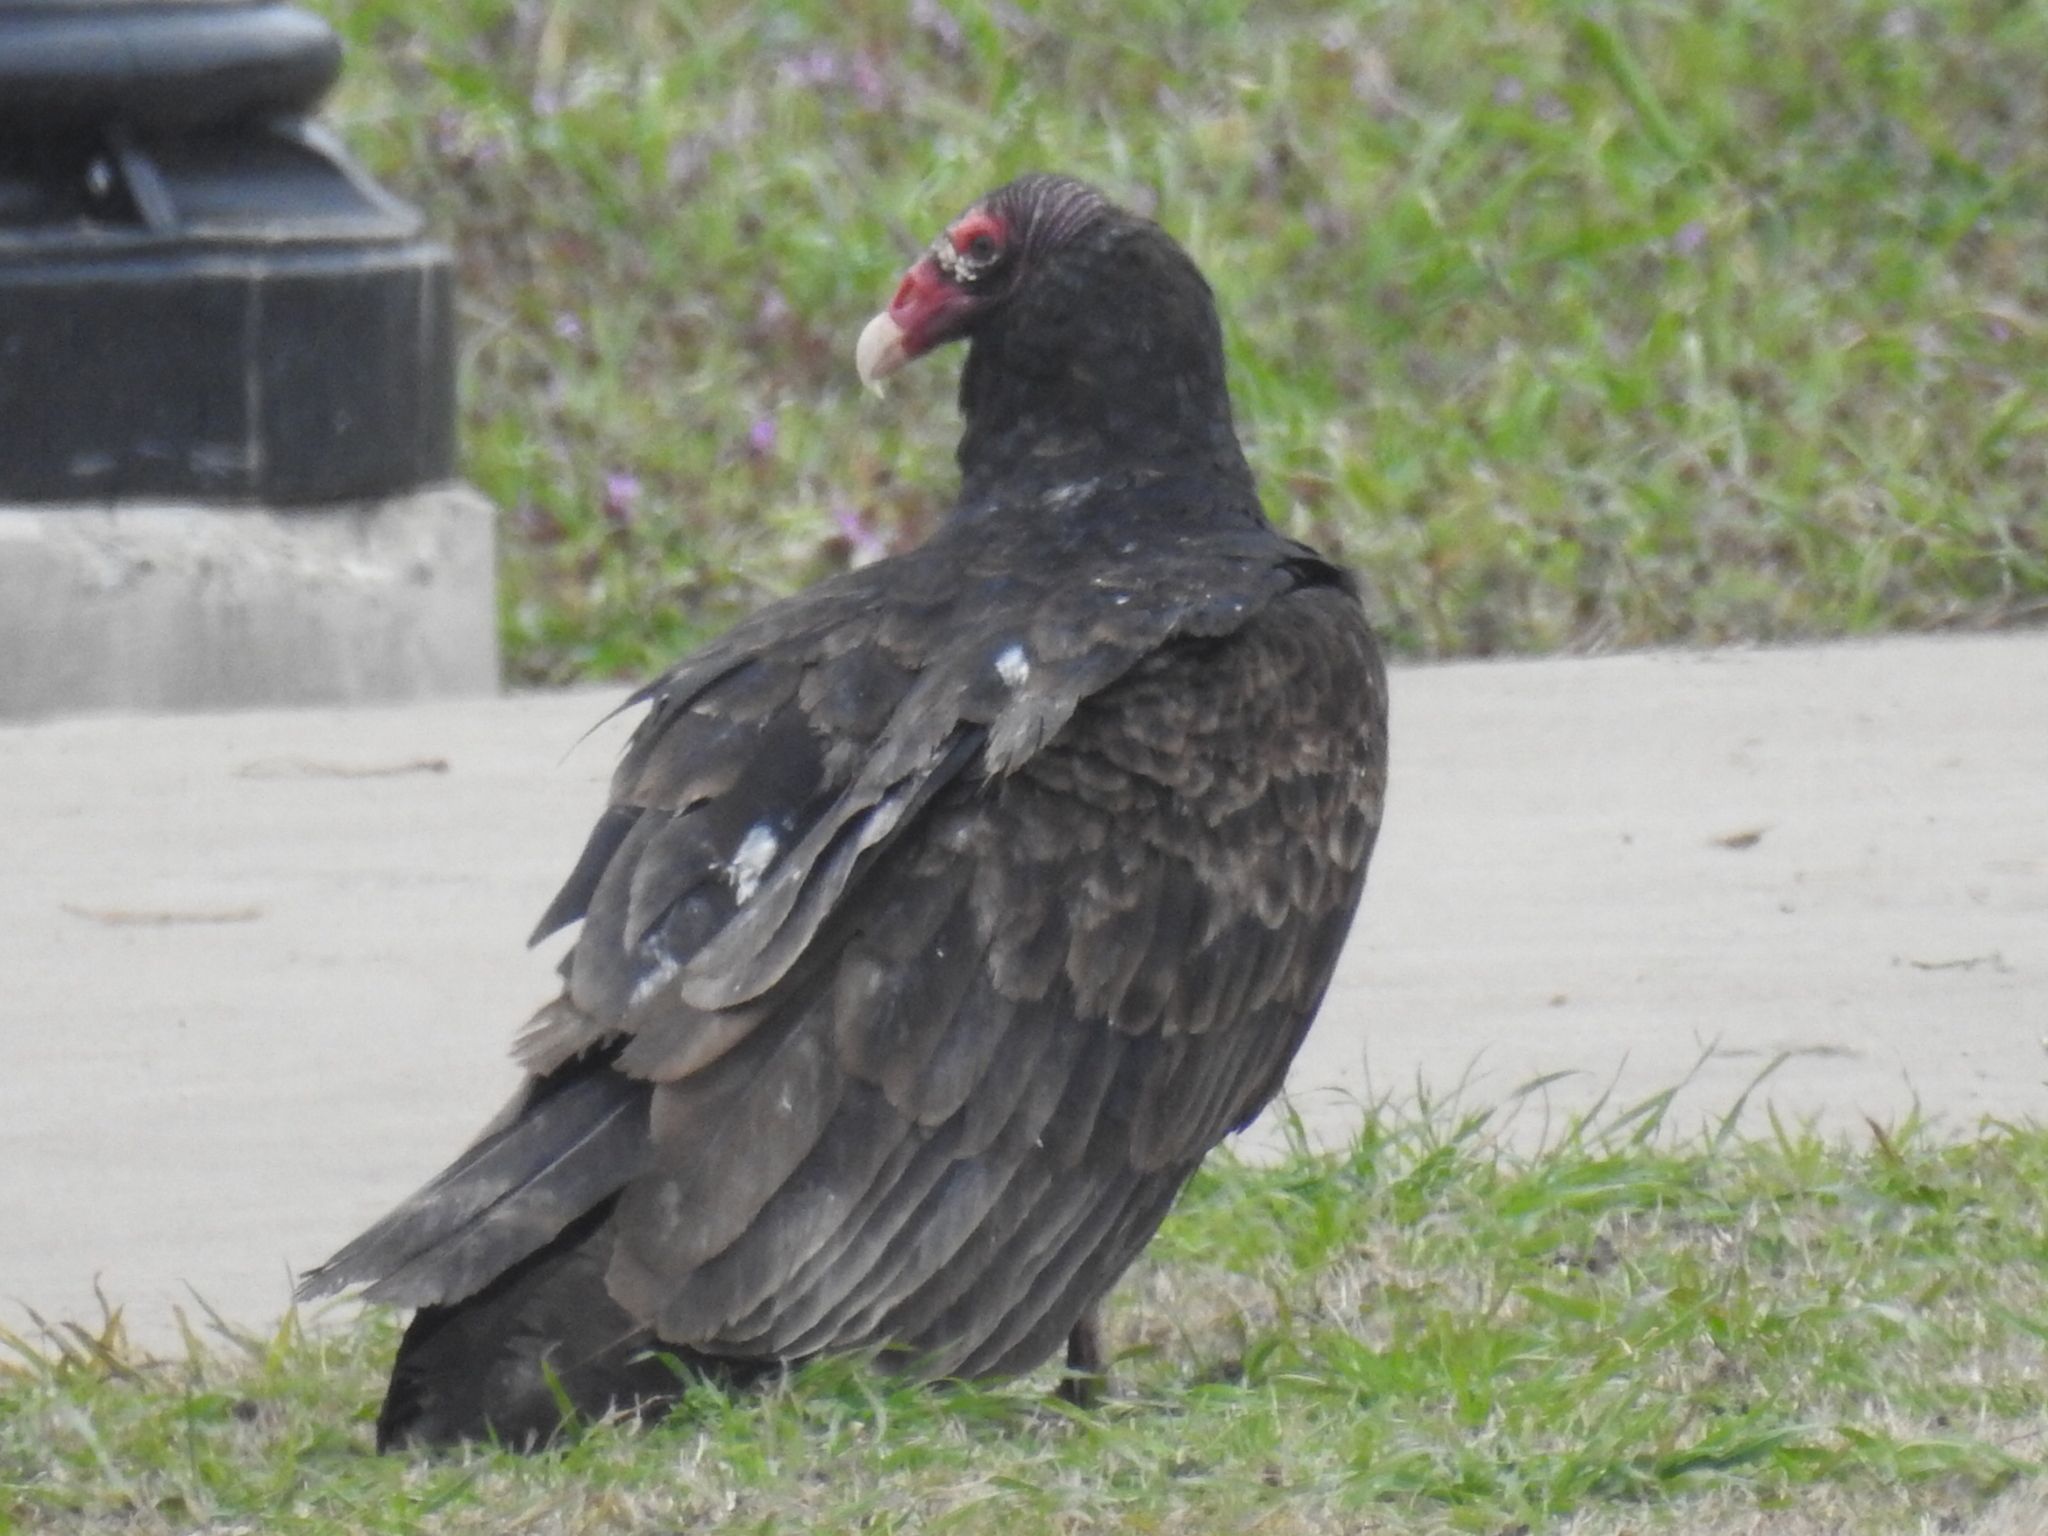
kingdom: Animalia
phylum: Chordata
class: Aves
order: Accipitriformes
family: Cathartidae
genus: Cathartes
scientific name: Cathartes aura
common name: Turkey vulture
